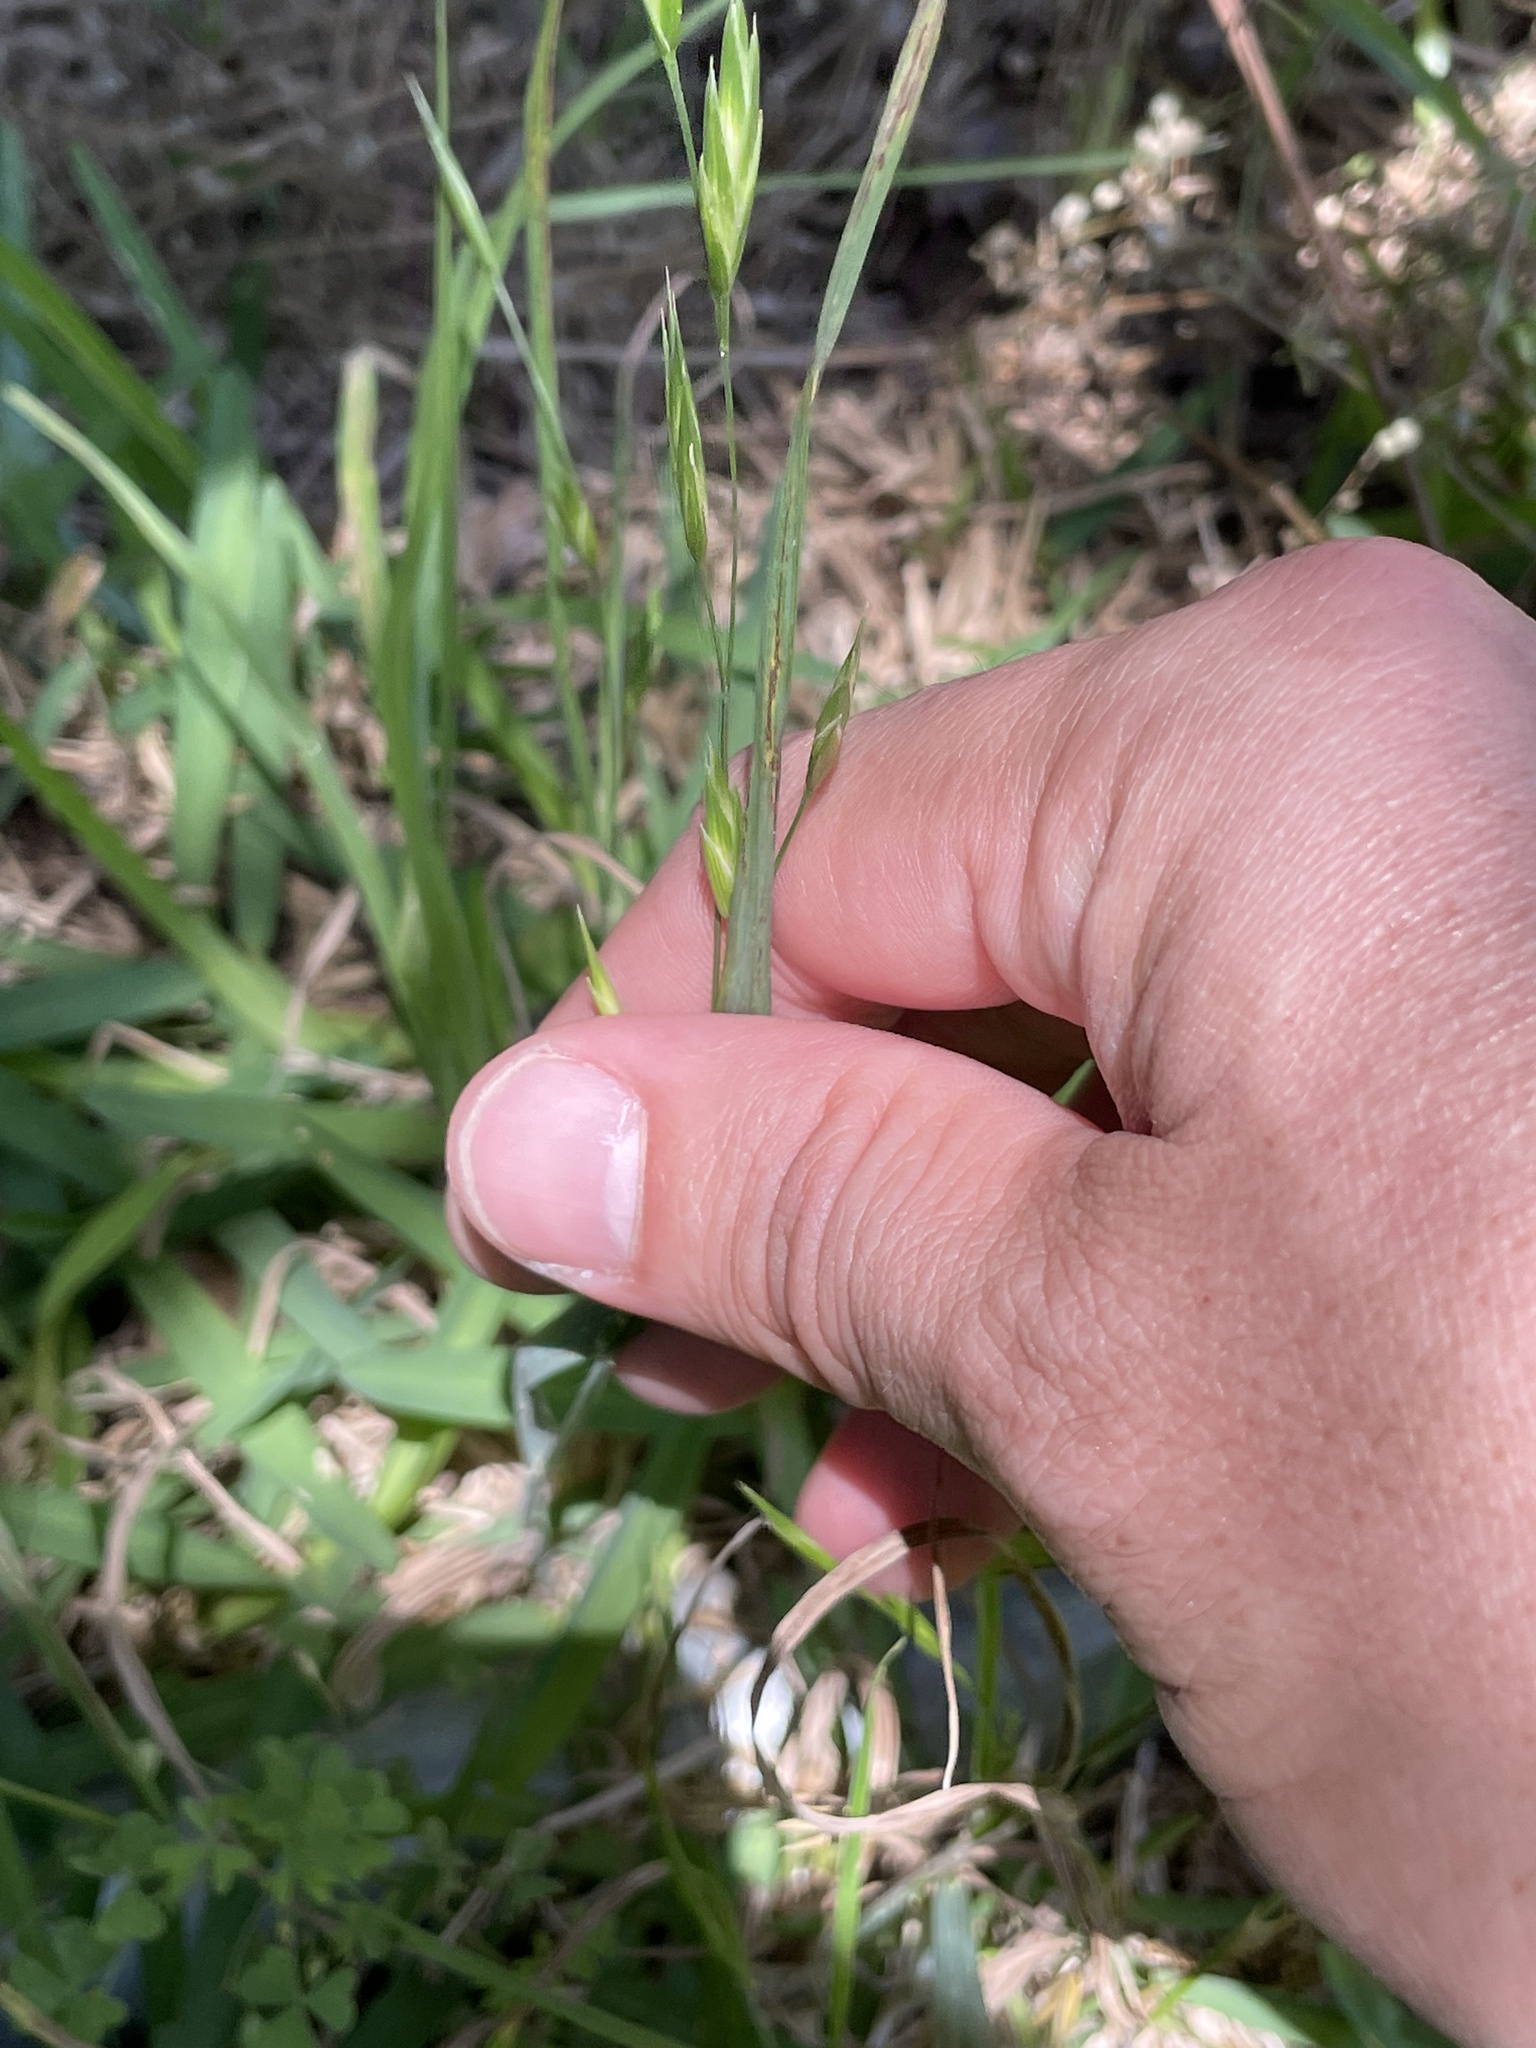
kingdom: Plantae
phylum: Tracheophyta
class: Liliopsida
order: Poales
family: Poaceae
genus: Bromus
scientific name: Bromus catharticus
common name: Rescuegrass
